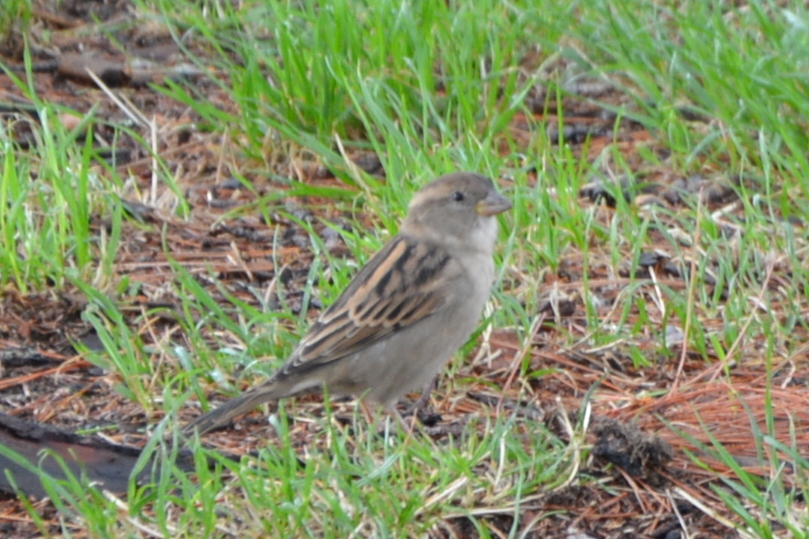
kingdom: Animalia
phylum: Chordata
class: Aves
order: Passeriformes
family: Passeridae
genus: Passer
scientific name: Passer domesticus
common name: House sparrow
